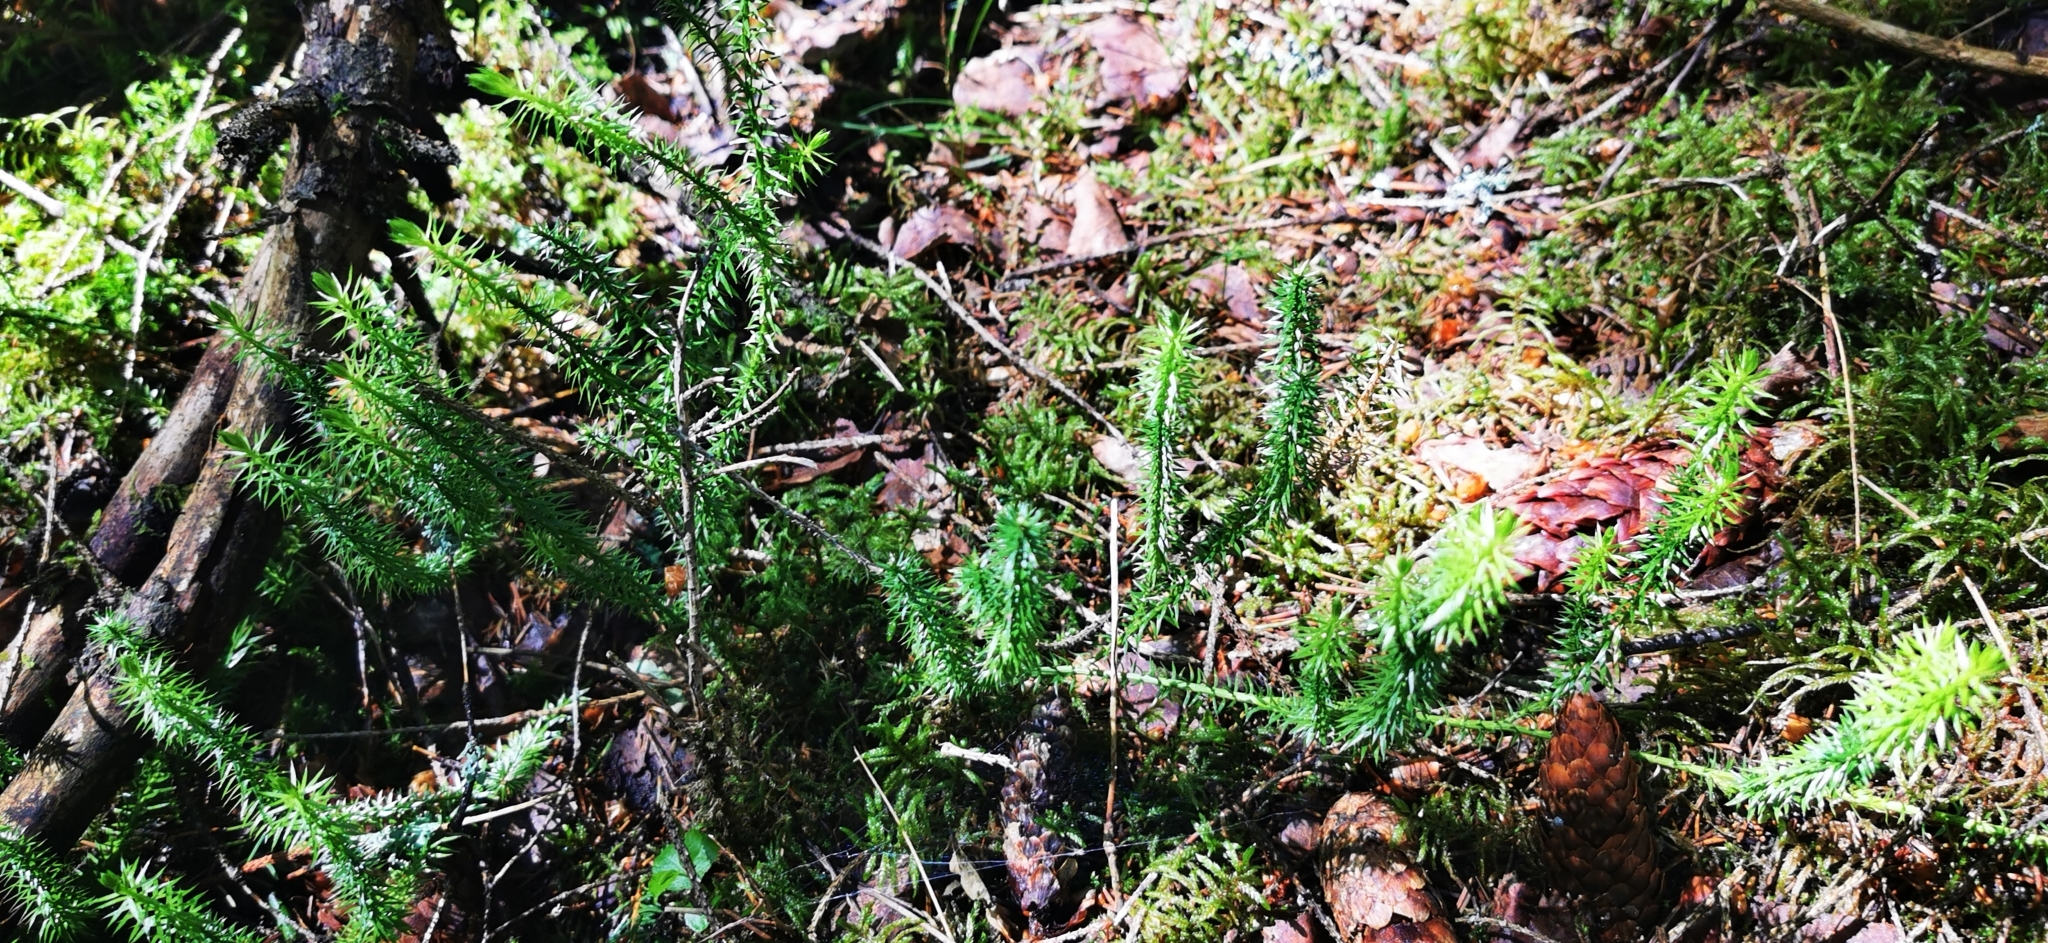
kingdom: Plantae
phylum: Tracheophyta
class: Lycopodiopsida
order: Lycopodiales
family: Lycopodiaceae
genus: Spinulum
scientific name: Spinulum annotinum
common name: Interrupted club-moss
